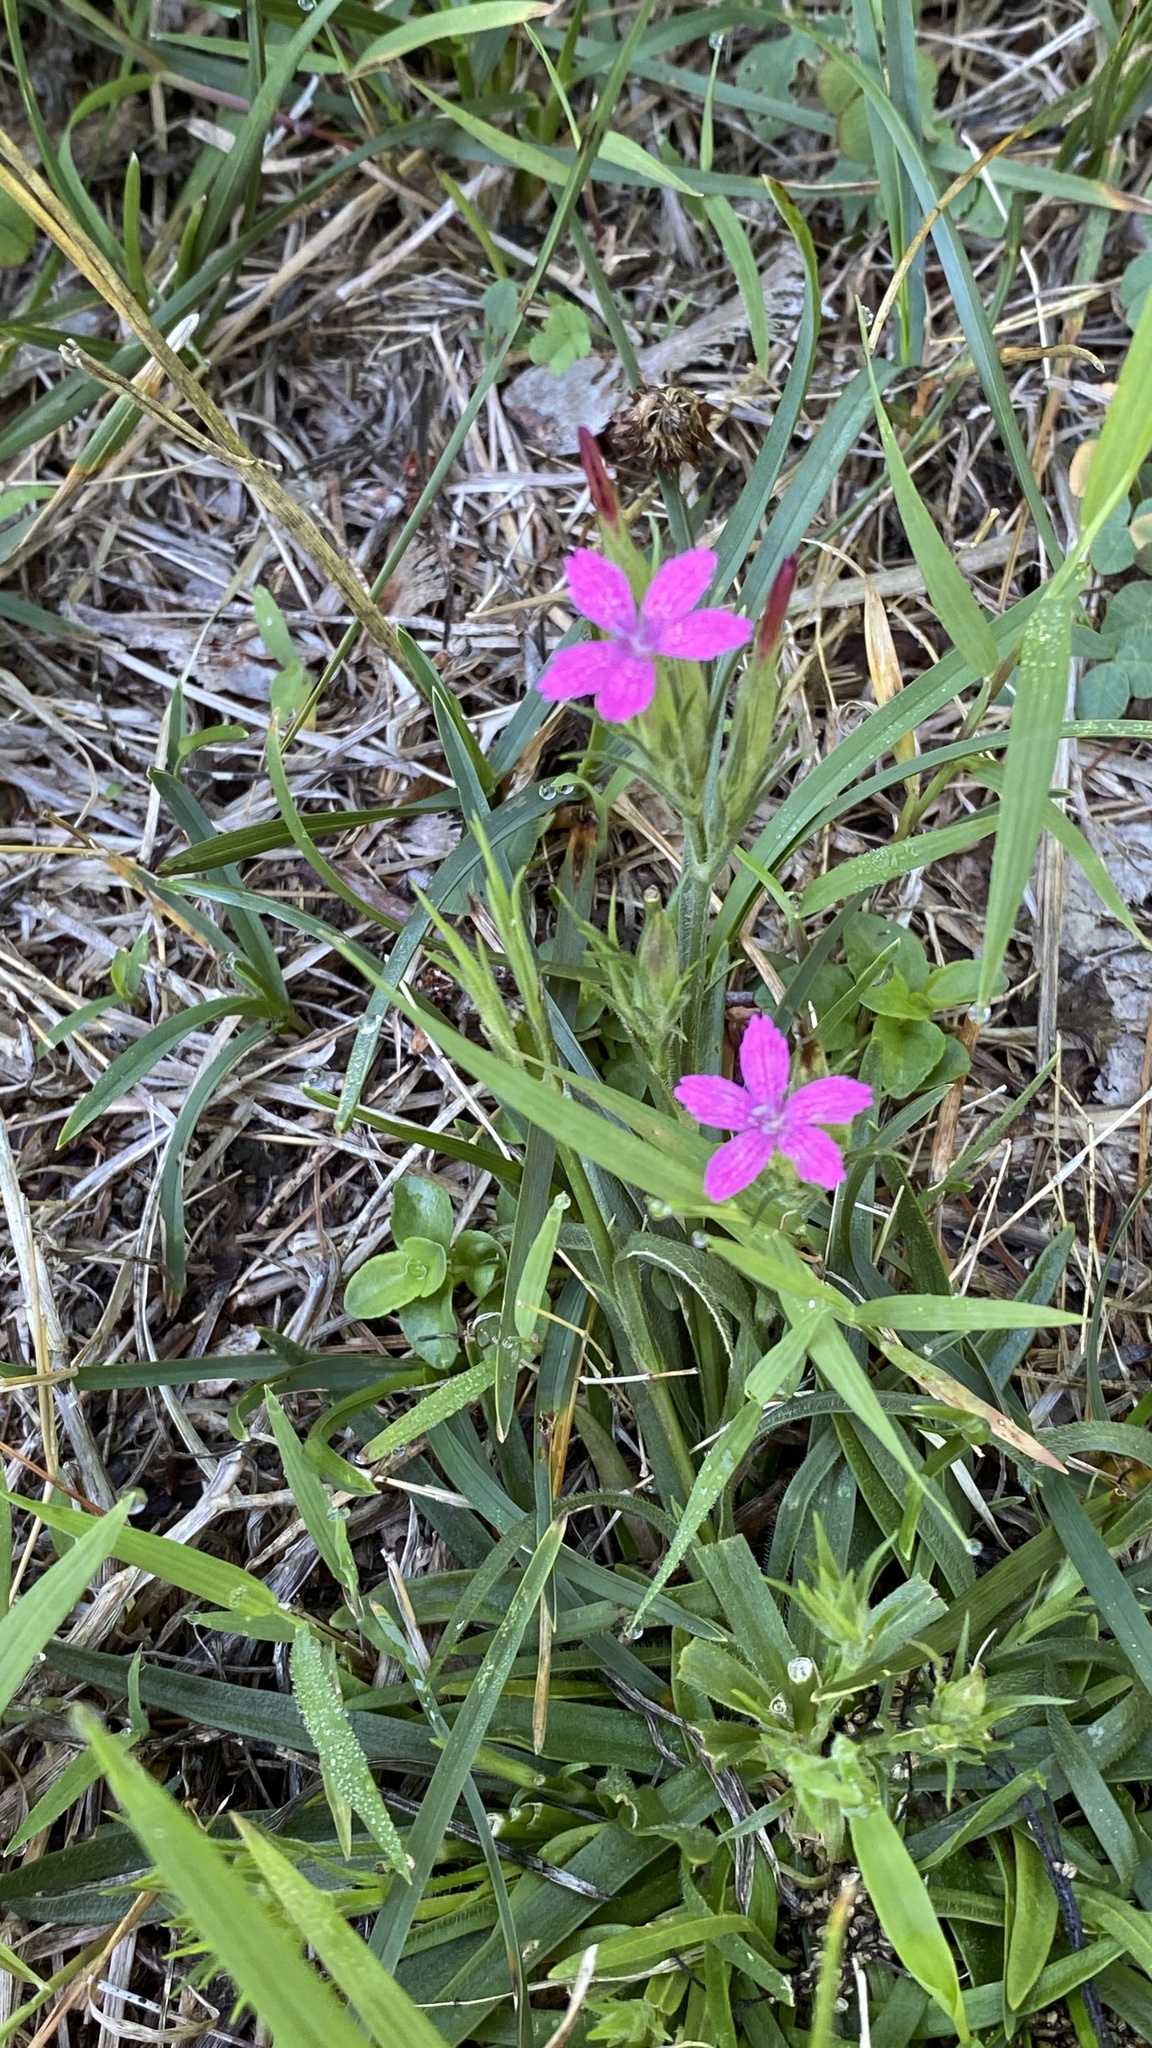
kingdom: Plantae
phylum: Tracheophyta
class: Magnoliopsida
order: Caryophyllales
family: Caryophyllaceae
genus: Dianthus
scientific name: Dianthus armeria
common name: Deptford pink
